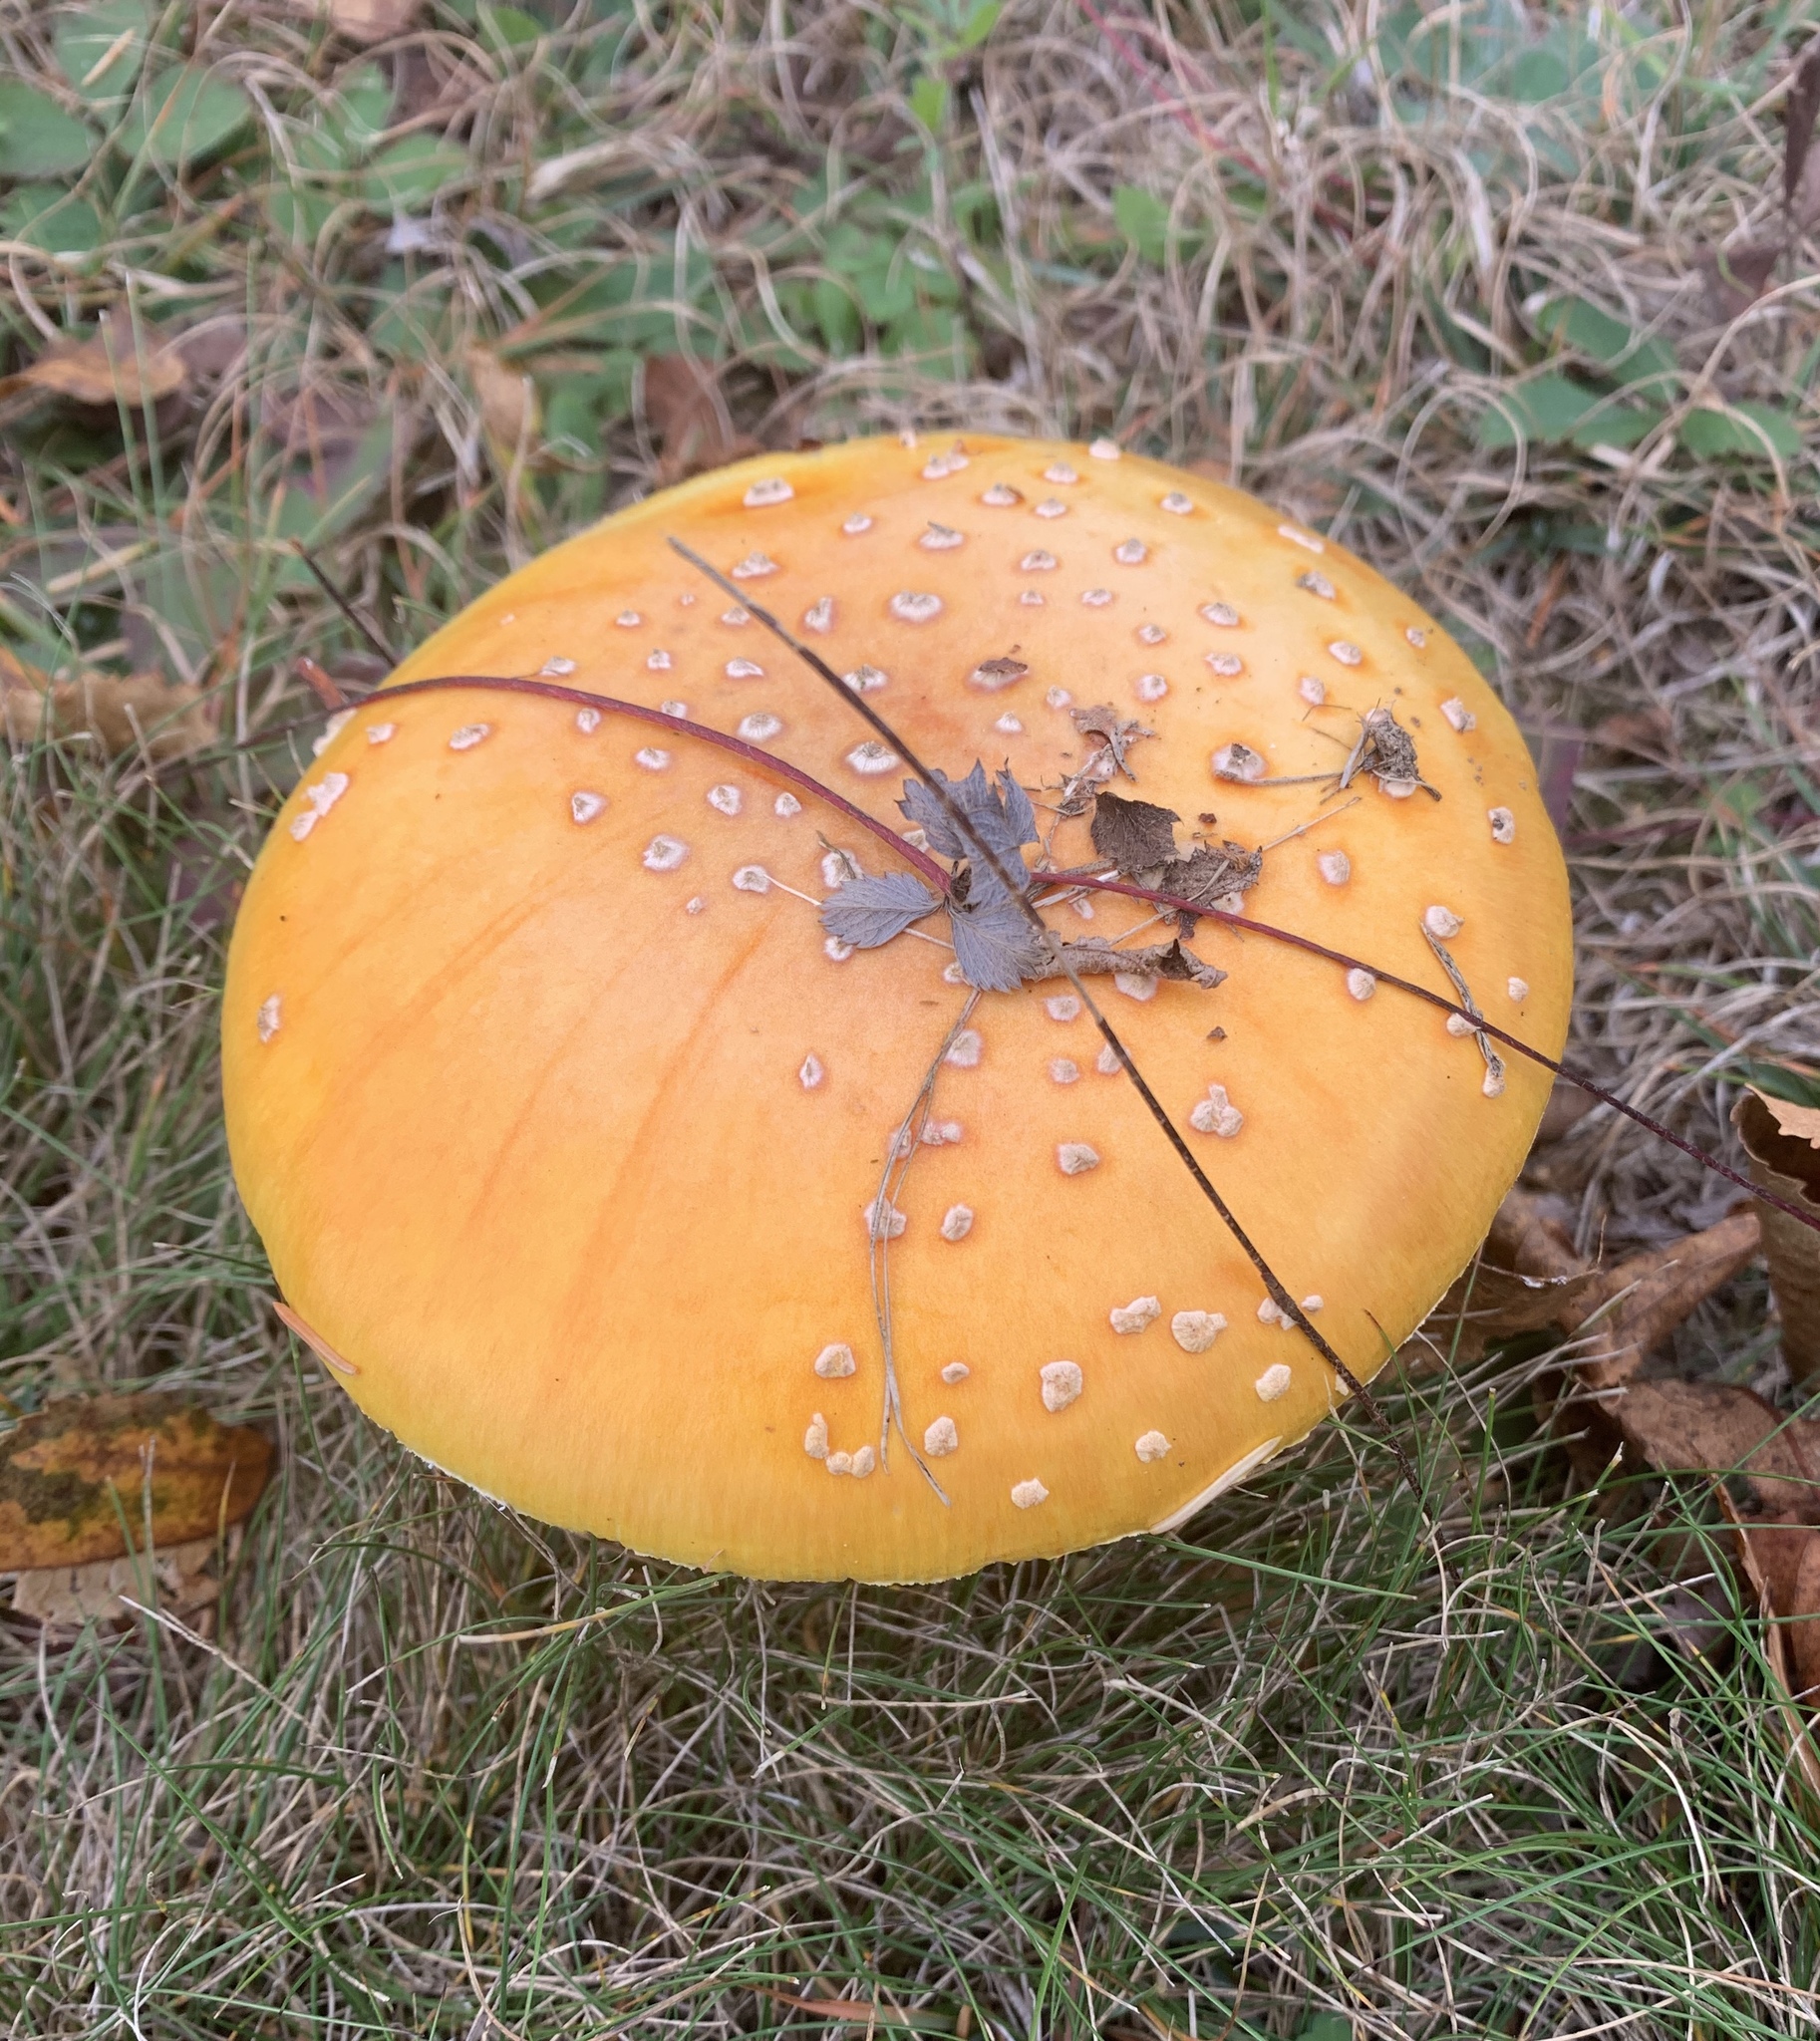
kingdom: Fungi
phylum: Basidiomycota
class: Agaricomycetes
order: Agaricales
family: Amanitaceae
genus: Amanita
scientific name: Amanita muscaria
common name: Fly agaric
